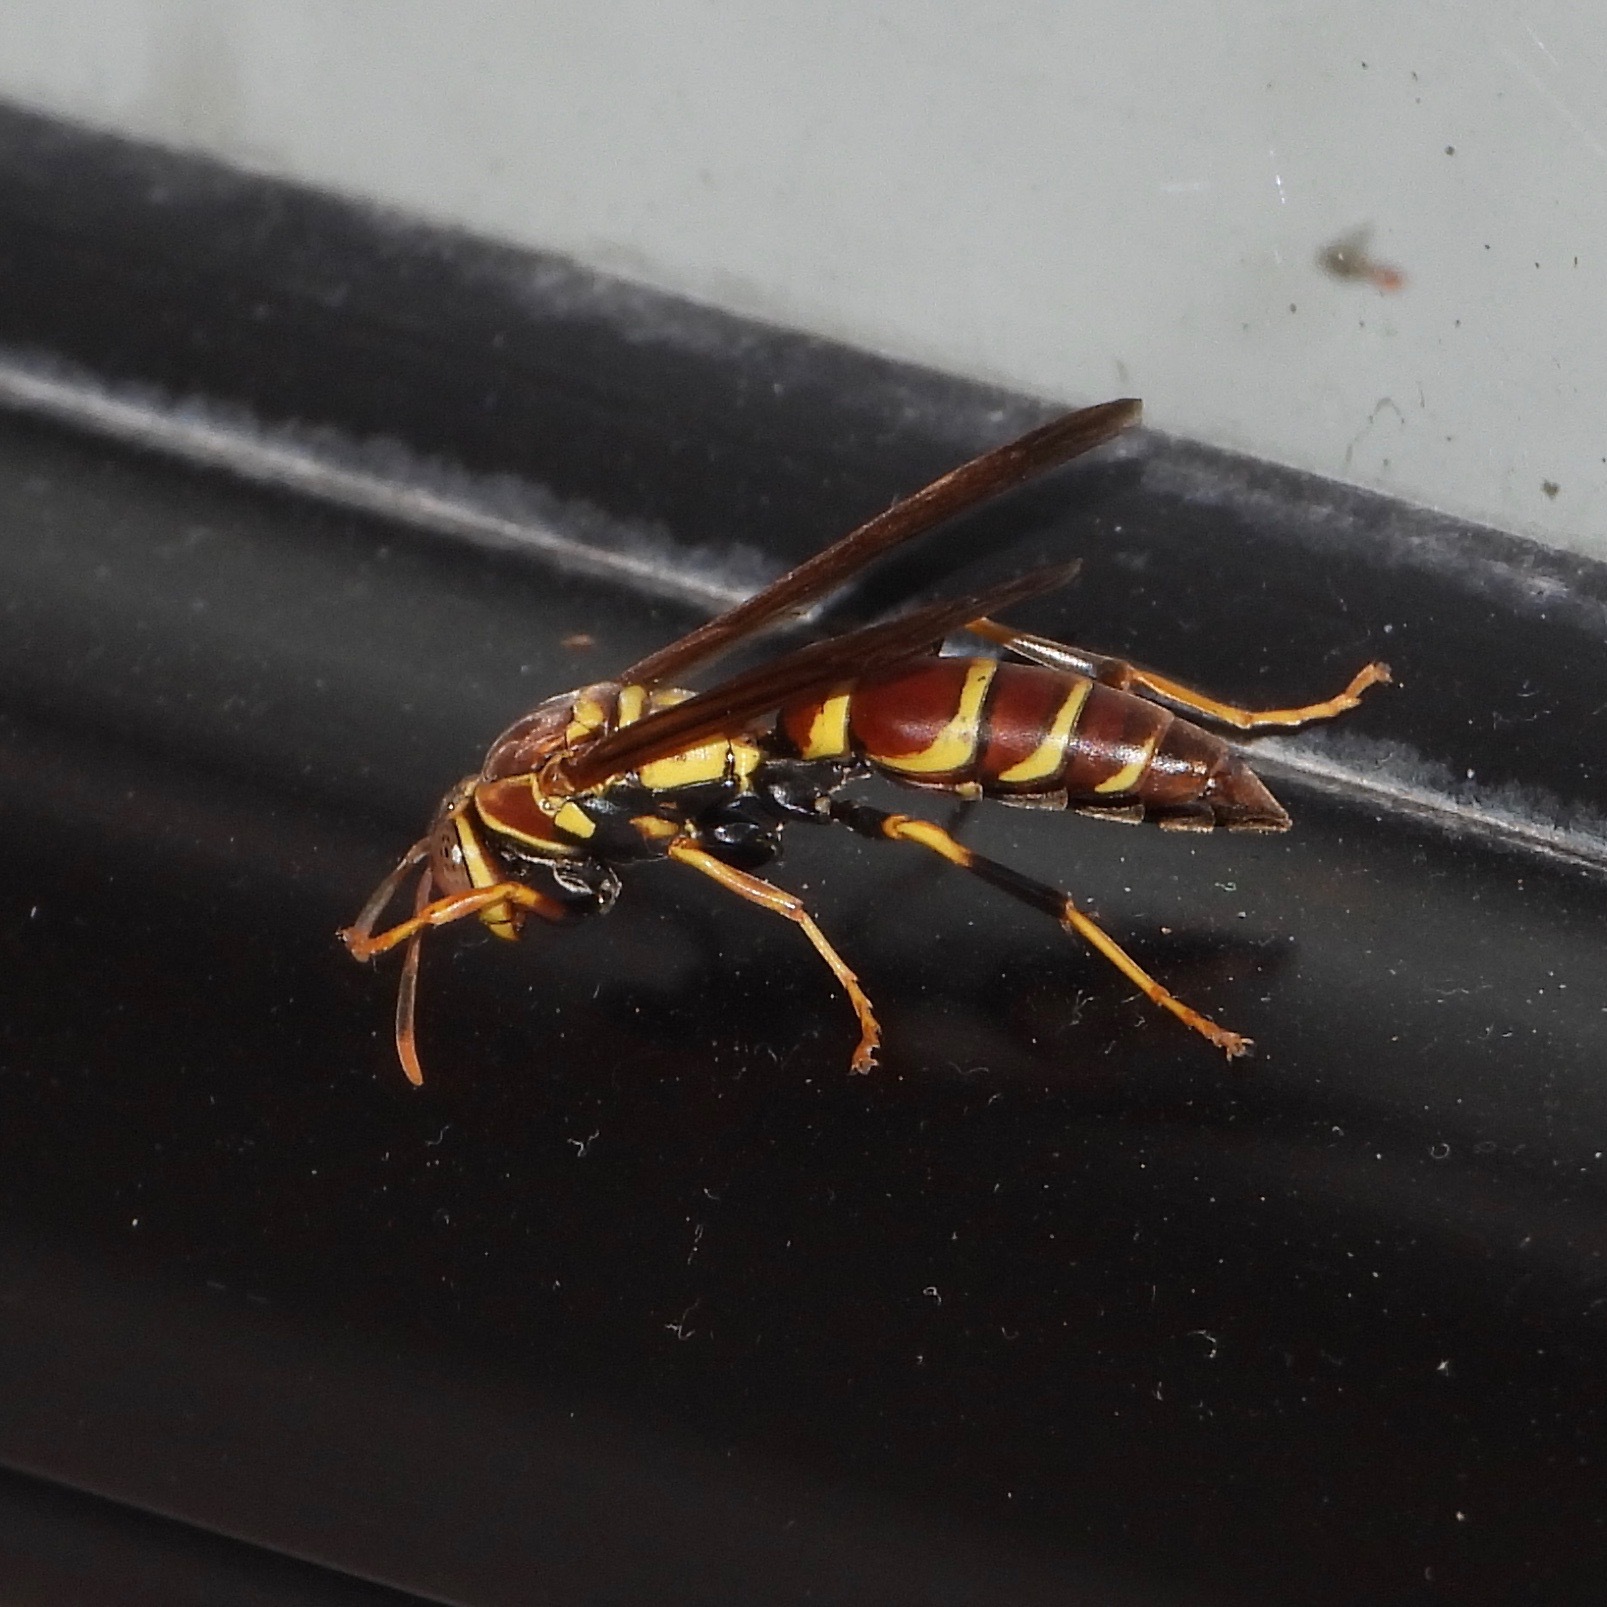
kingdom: Animalia
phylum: Arthropoda
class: Insecta
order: Hymenoptera
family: Eumenidae
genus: Polistes
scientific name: Polistes instabilis
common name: Unstable paper wasp
